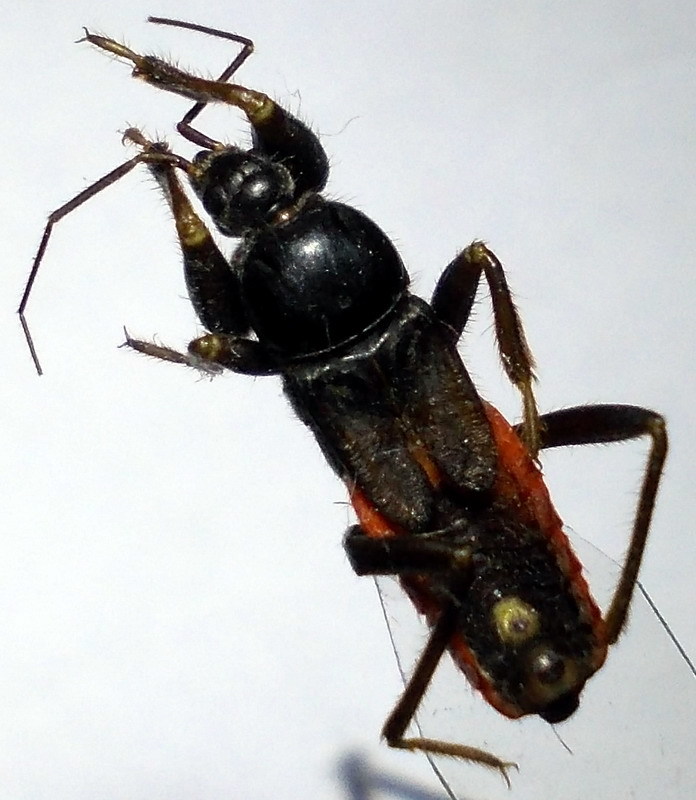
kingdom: Animalia
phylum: Arthropoda
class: Insecta
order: Hemiptera
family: Reduviidae
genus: Peirates
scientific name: Peirates hybridus
